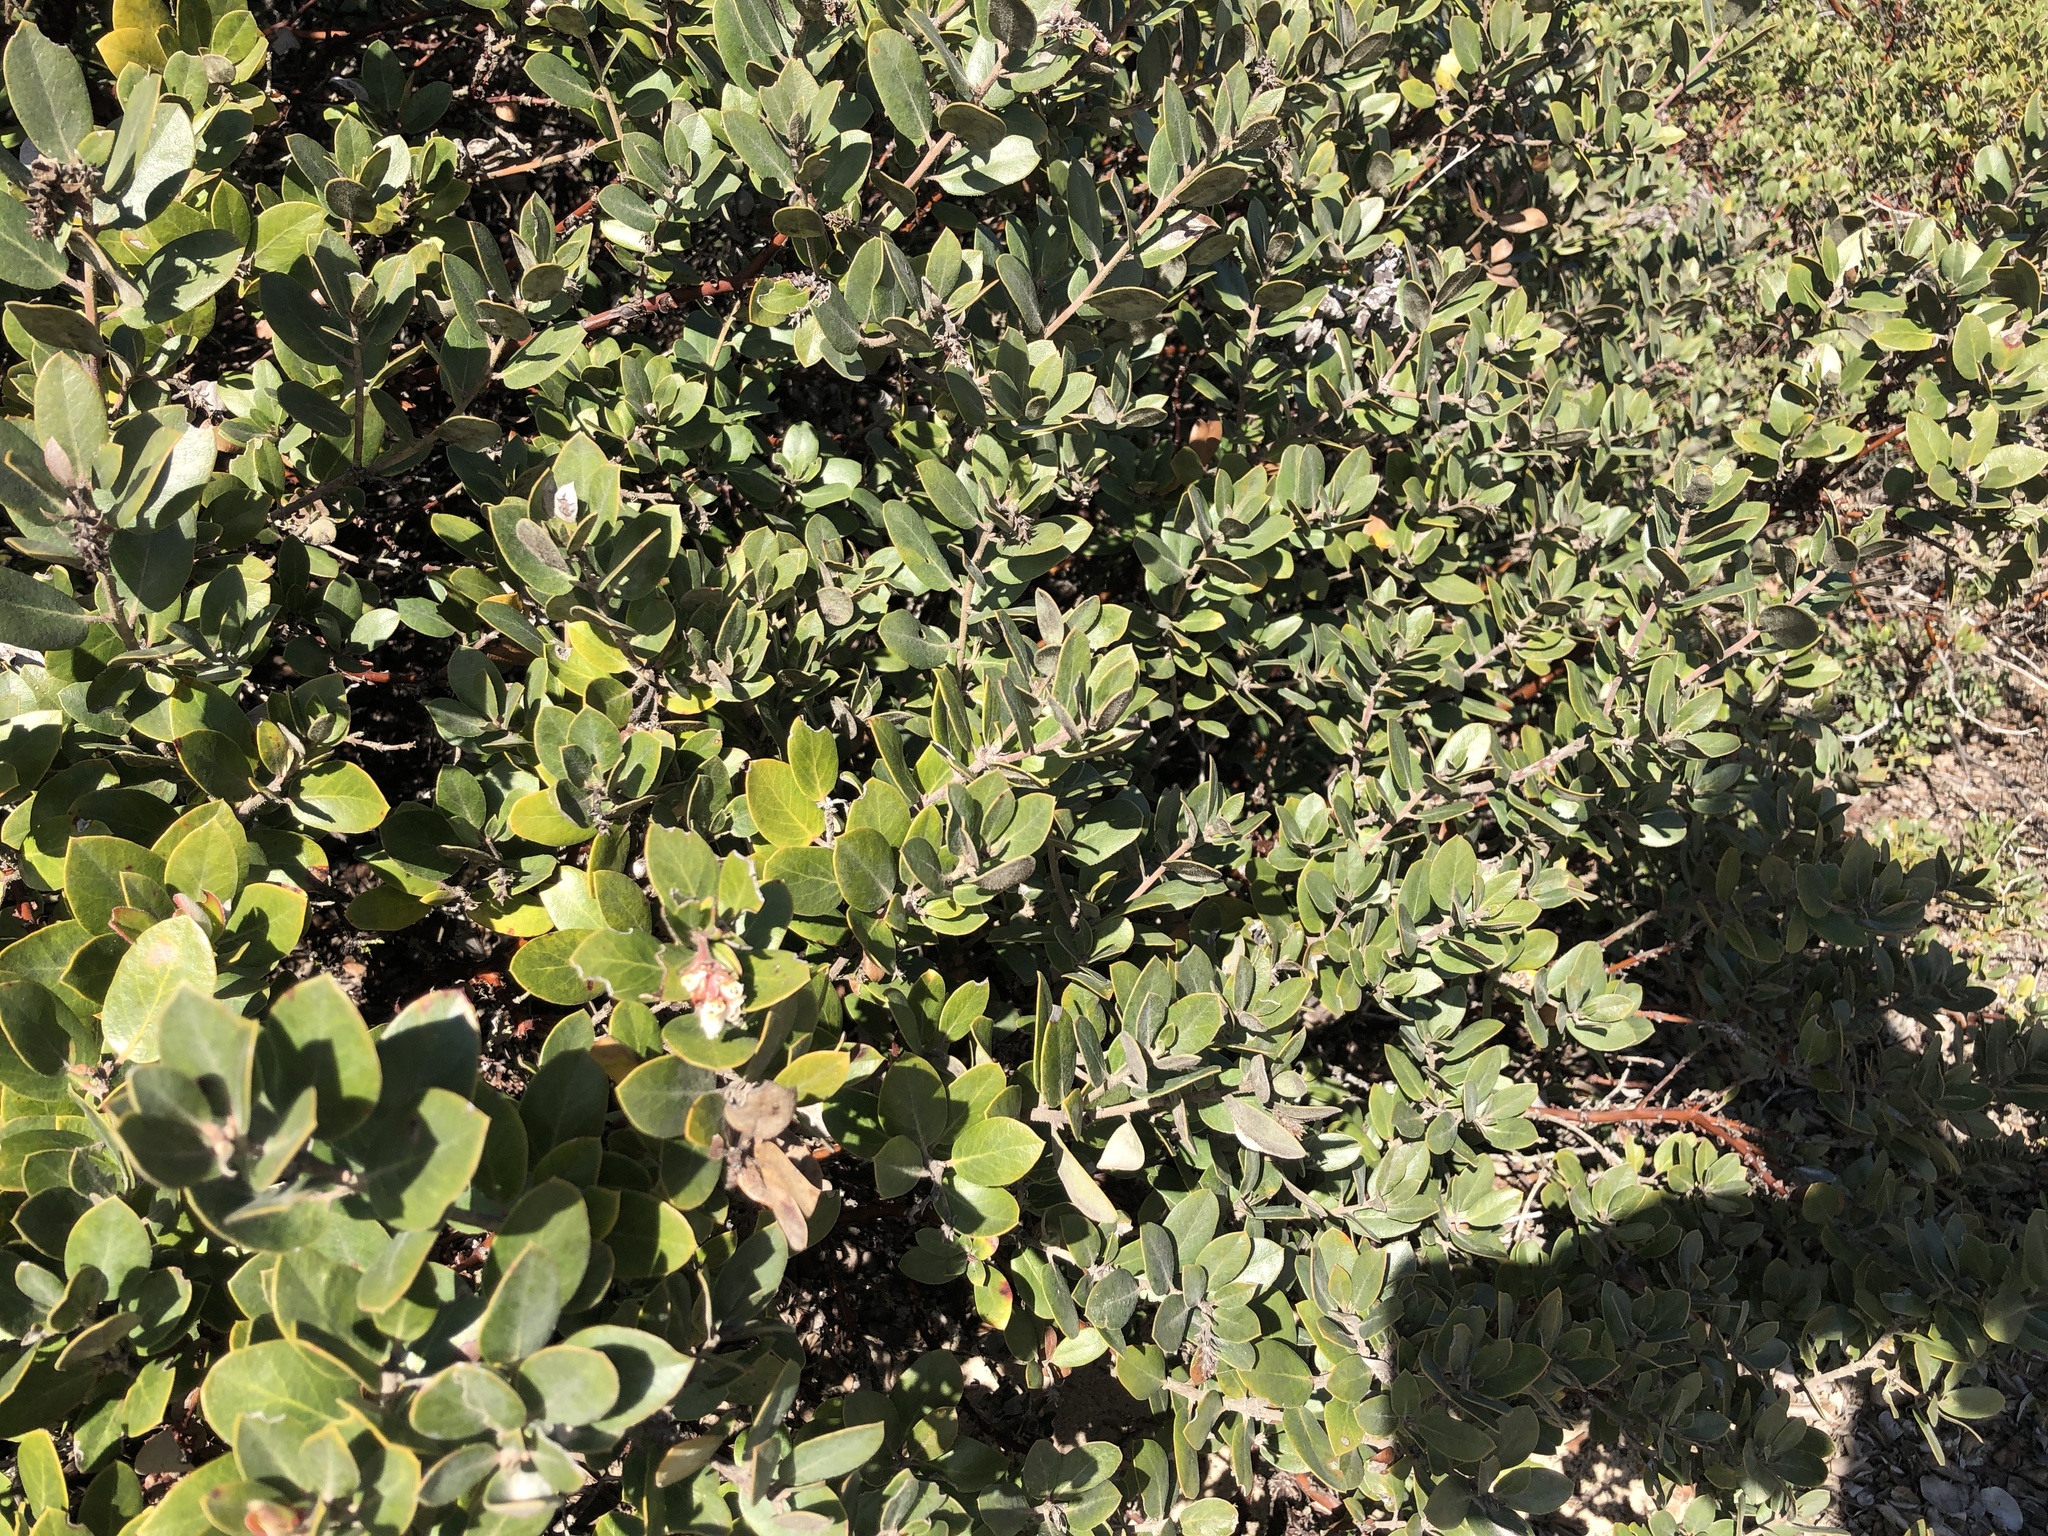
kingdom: Plantae
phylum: Tracheophyta
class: Magnoliopsida
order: Ericales
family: Ericaceae
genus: Arctostaphylos
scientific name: Arctostaphylos tomentosa
